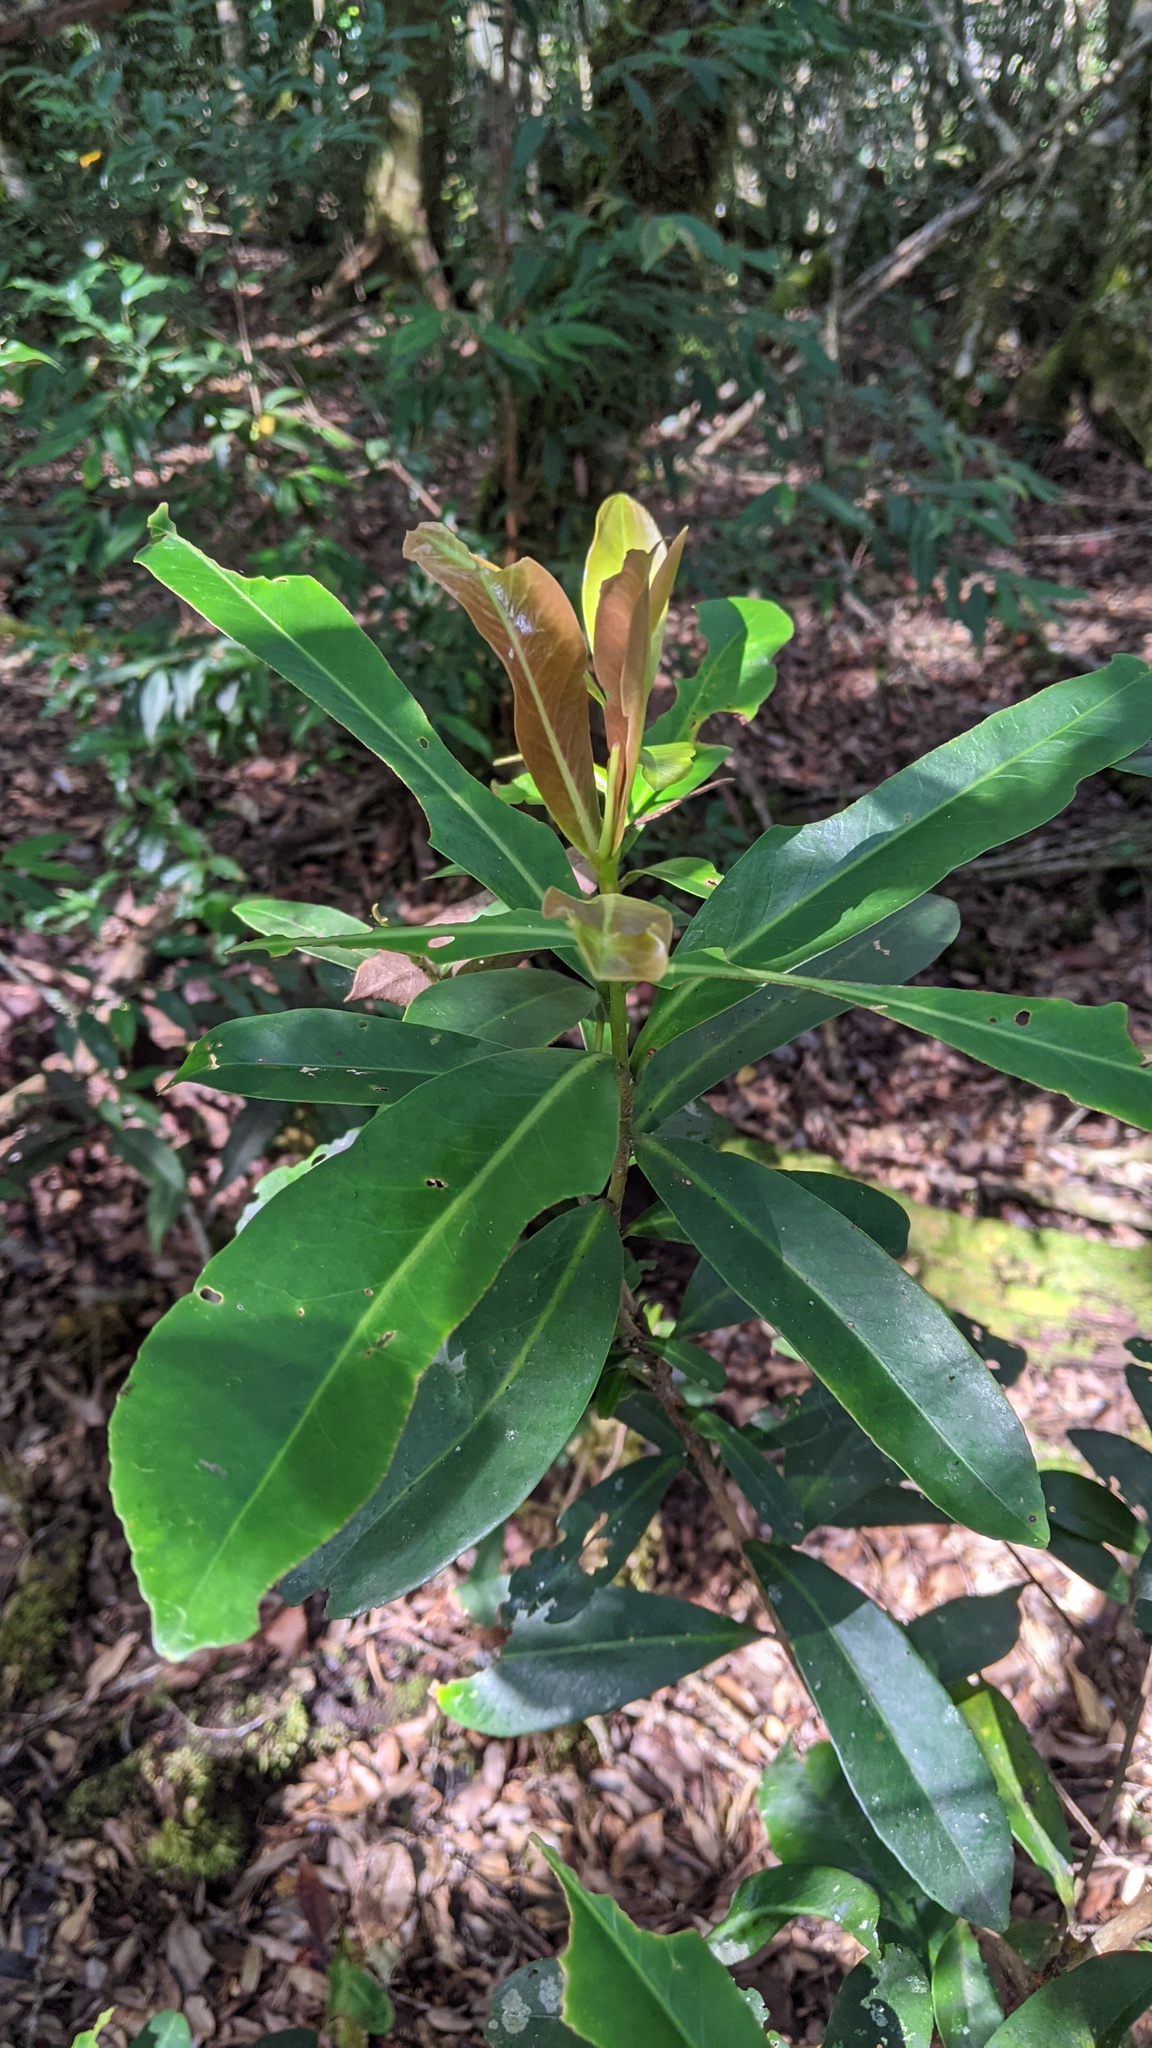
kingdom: Plantae
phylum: Tracheophyta
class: Magnoliopsida
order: Ericales
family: Theaceae
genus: Polyspora
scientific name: Polyspora axillaris
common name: Fried egg tree
